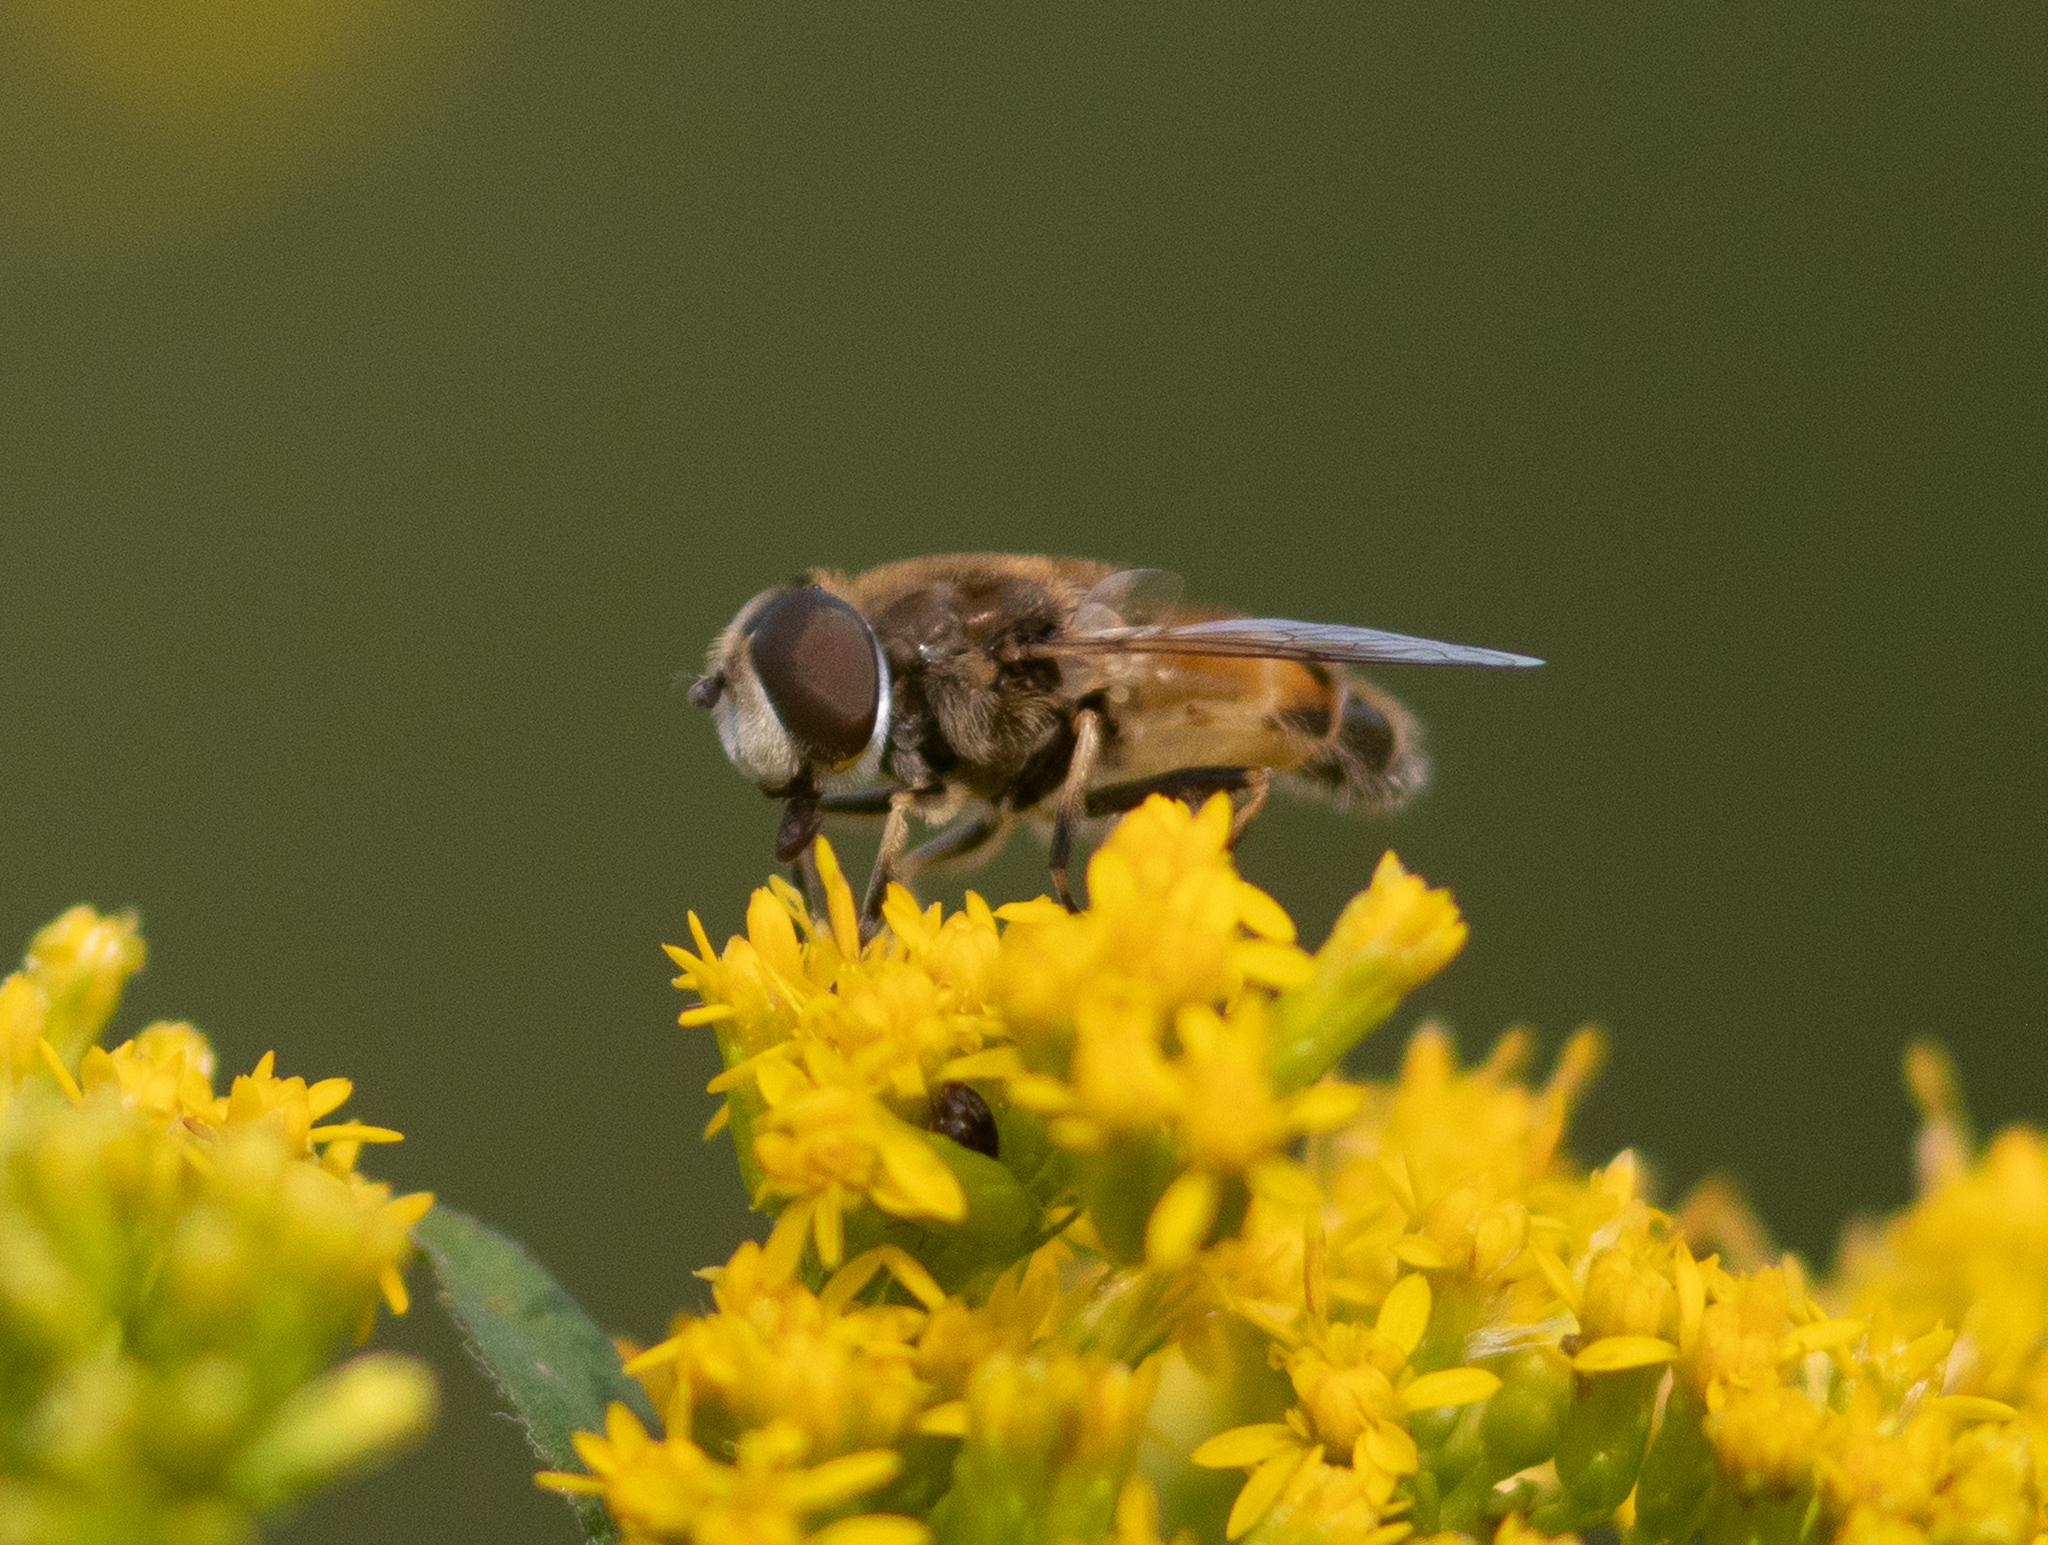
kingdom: Animalia
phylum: Arthropoda
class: Insecta
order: Diptera
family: Syrphidae
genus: Eristalis
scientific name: Eristalis arbustorum
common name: Hover fly
